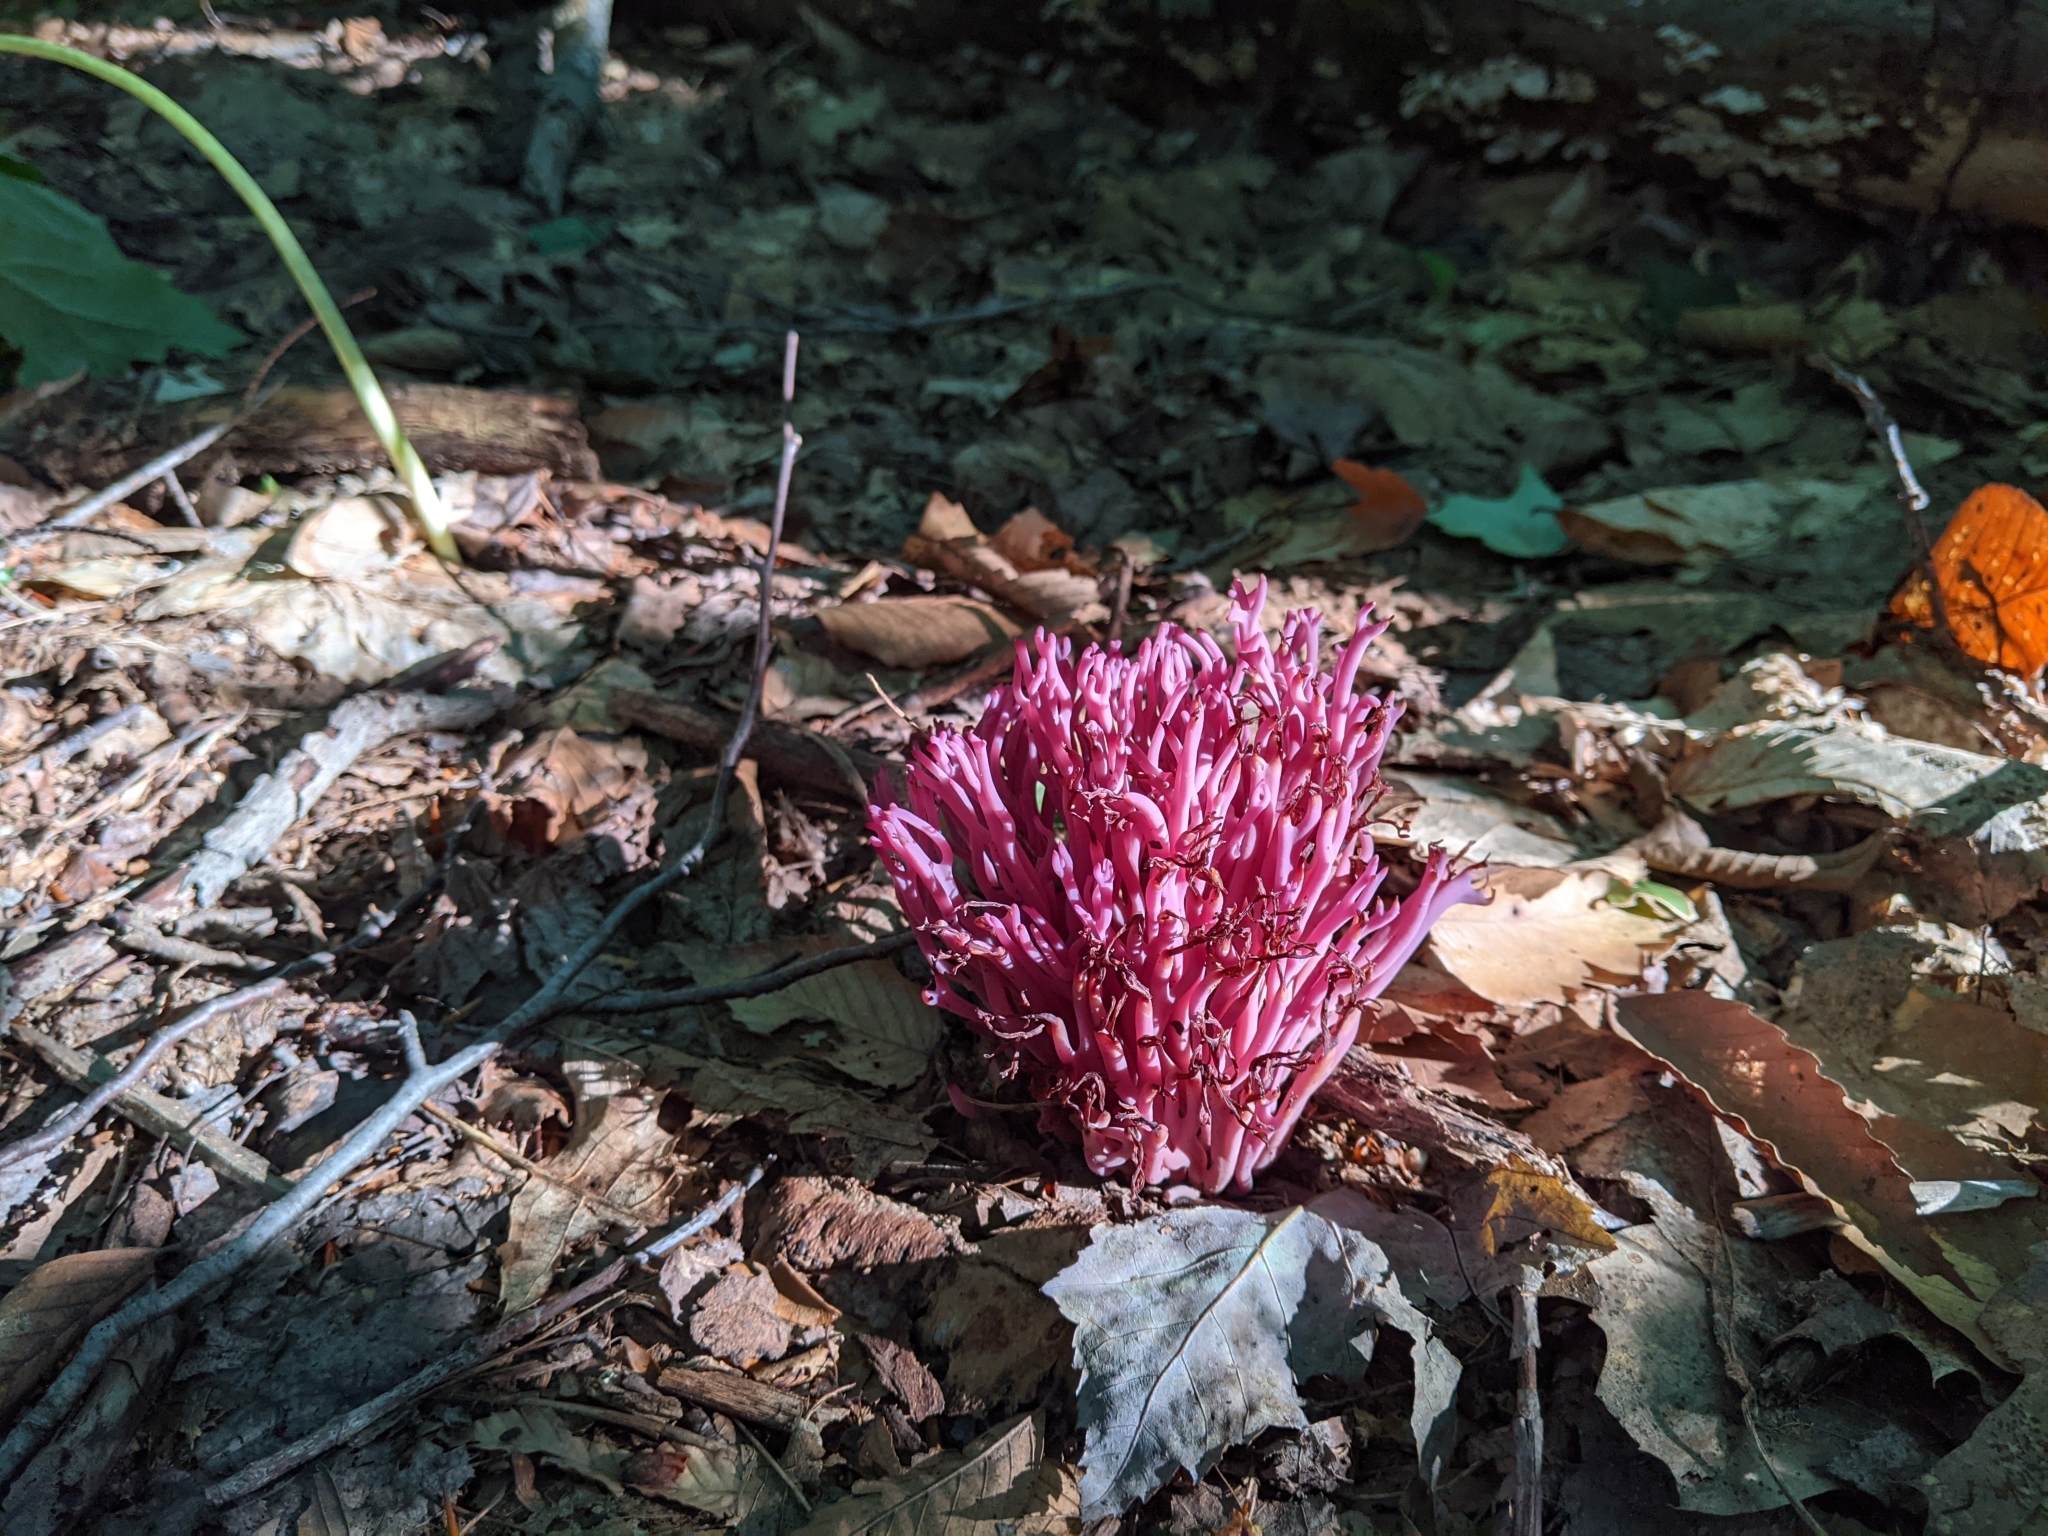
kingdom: Fungi
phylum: Basidiomycota
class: Agaricomycetes
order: Agaricales
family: Clavariaceae
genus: Clavaria
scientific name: Clavaria zollingeri
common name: Violet coral
